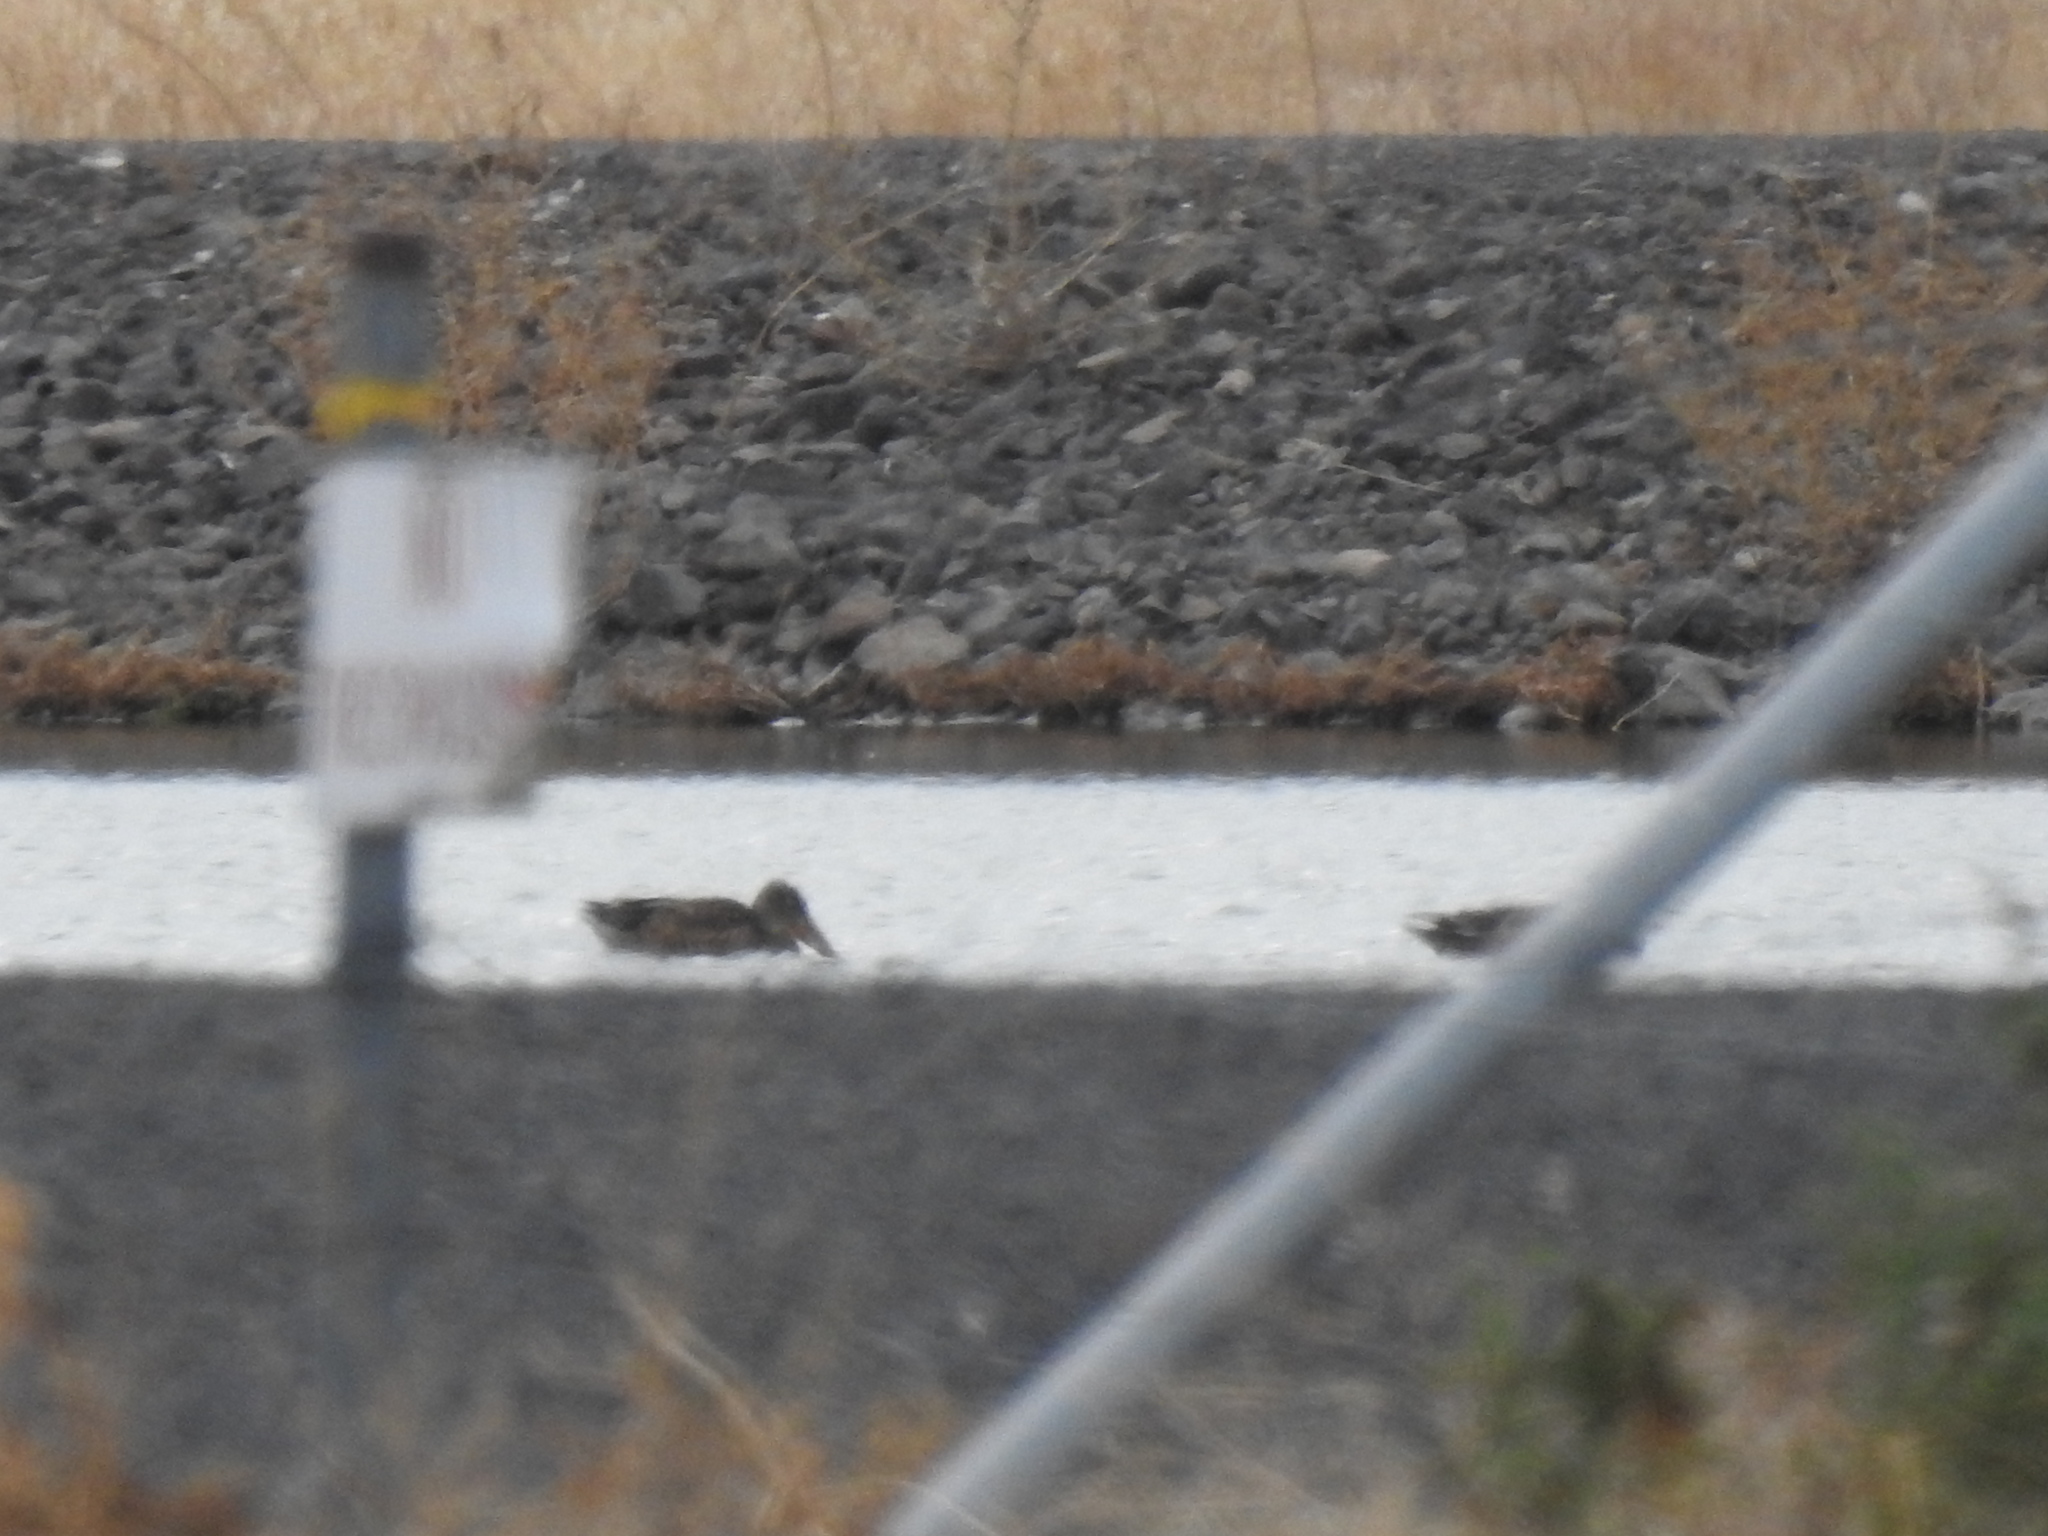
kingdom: Animalia
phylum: Chordata
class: Aves
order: Anseriformes
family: Anatidae
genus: Spatula
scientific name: Spatula clypeata
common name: Northern shoveler
